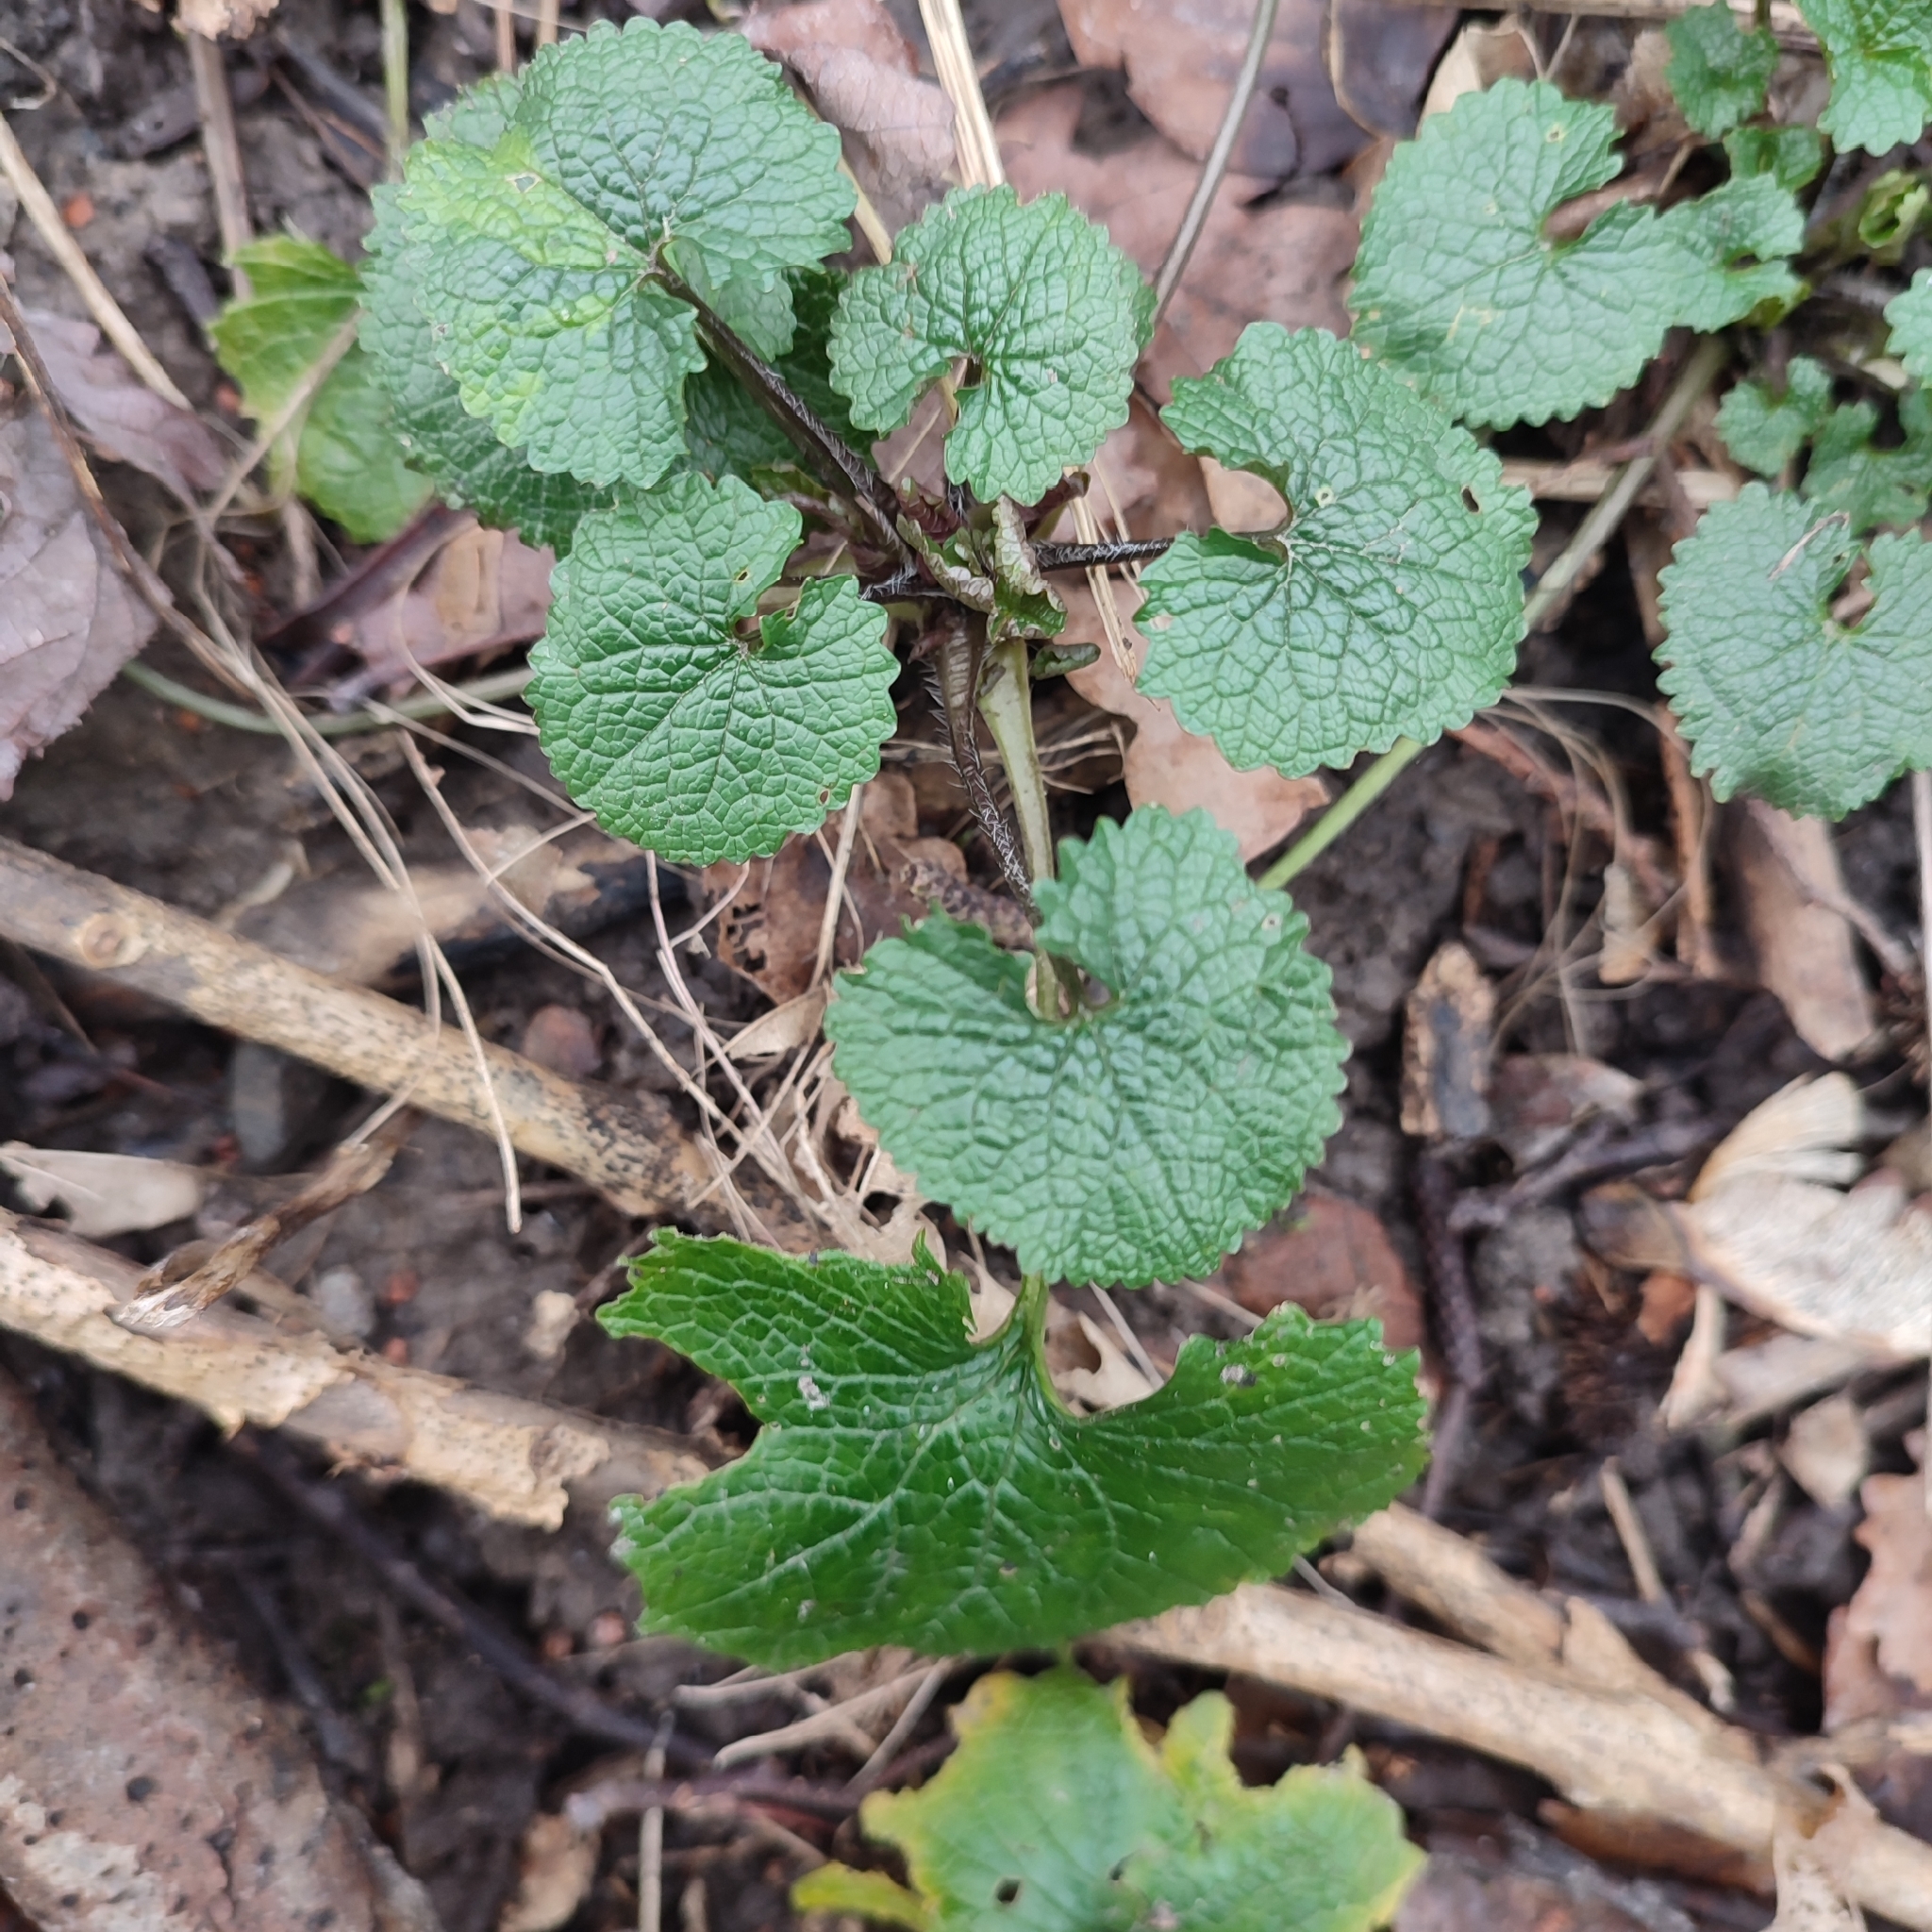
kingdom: Plantae
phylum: Tracheophyta
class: Magnoliopsida
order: Brassicales
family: Brassicaceae
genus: Alliaria
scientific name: Alliaria petiolata
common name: Garlic mustard
